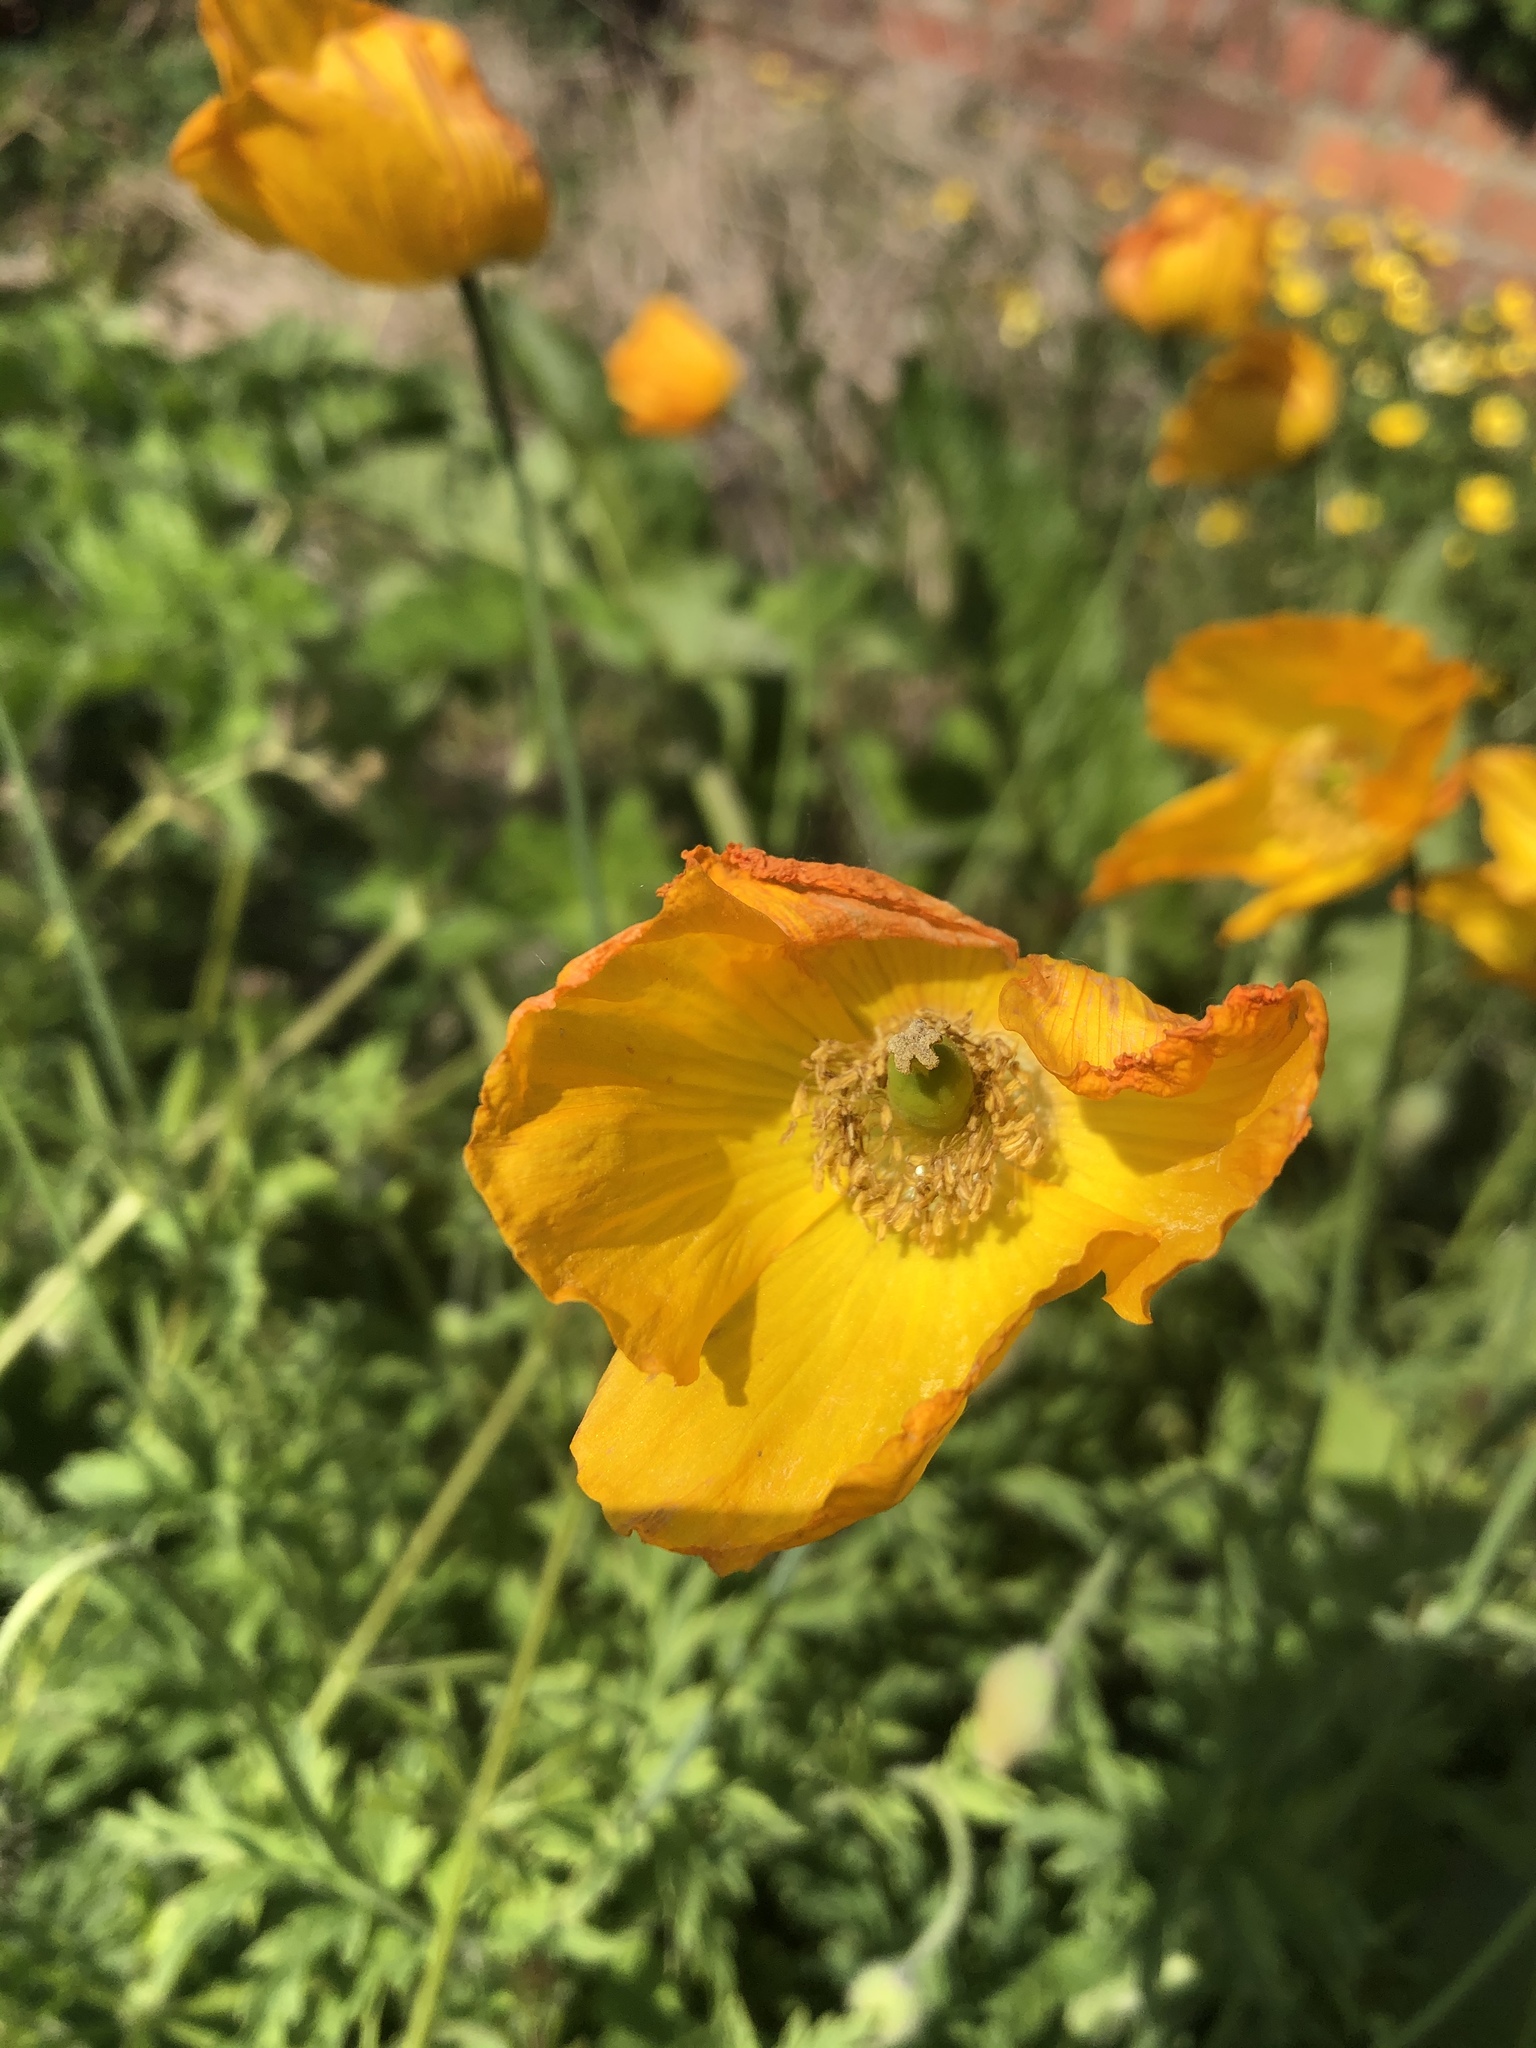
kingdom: Plantae
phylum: Tracheophyta
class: Magnoliopsida
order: Ranunculales
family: Papaveraceae
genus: Papaver
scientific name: Papaver cambricum
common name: Poppy
